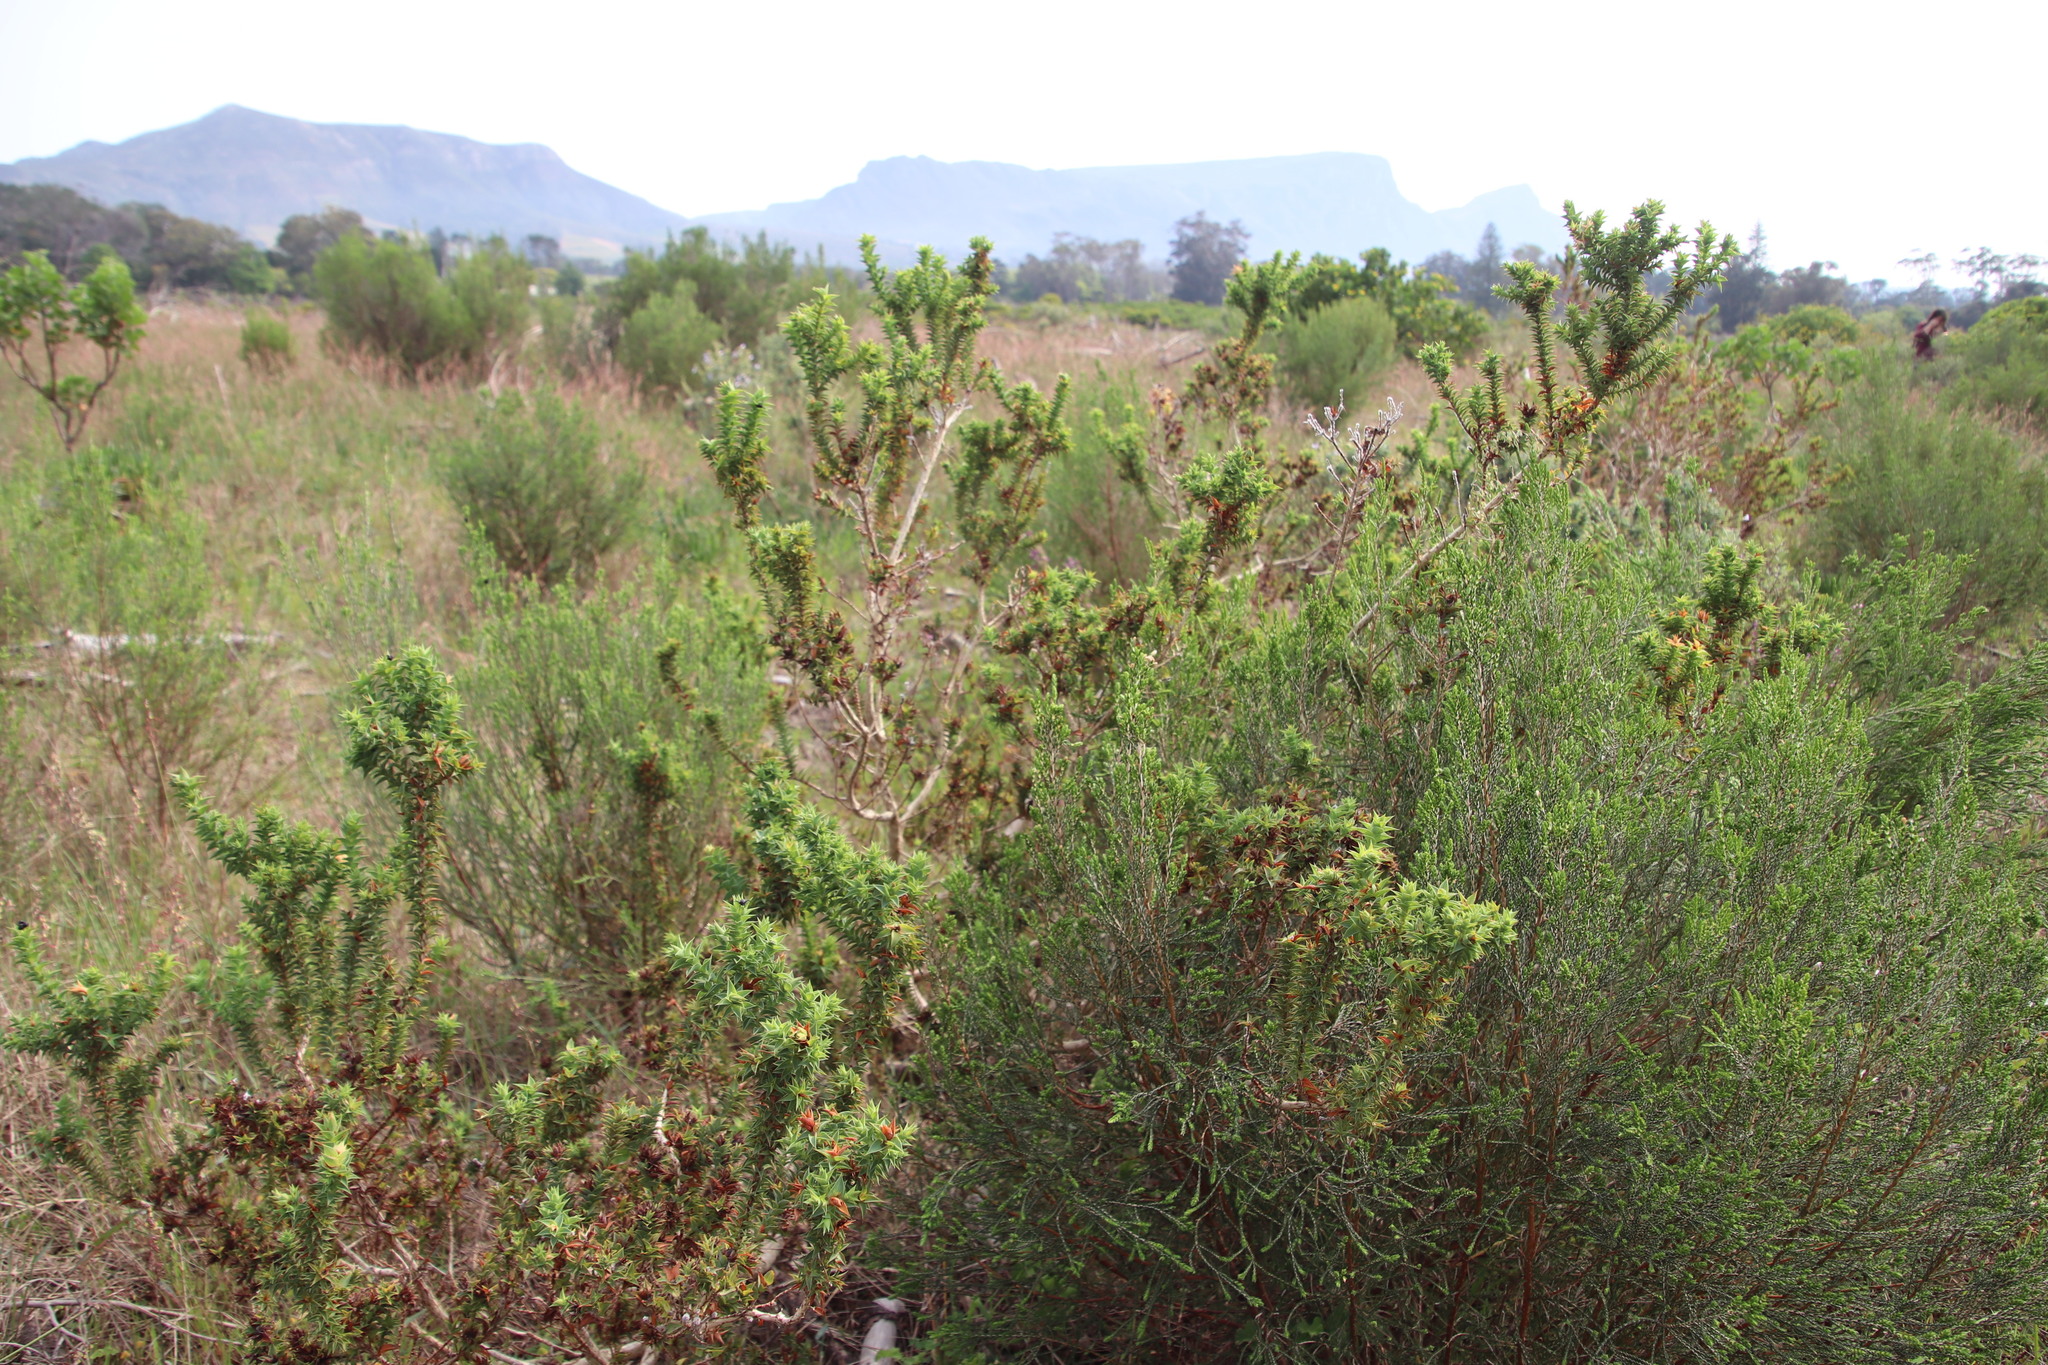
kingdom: Plantae
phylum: Tracheophyta
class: Magnoliopsida
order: Fabales
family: Fabaceae
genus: Aspalathus
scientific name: Aspalathus cordata
